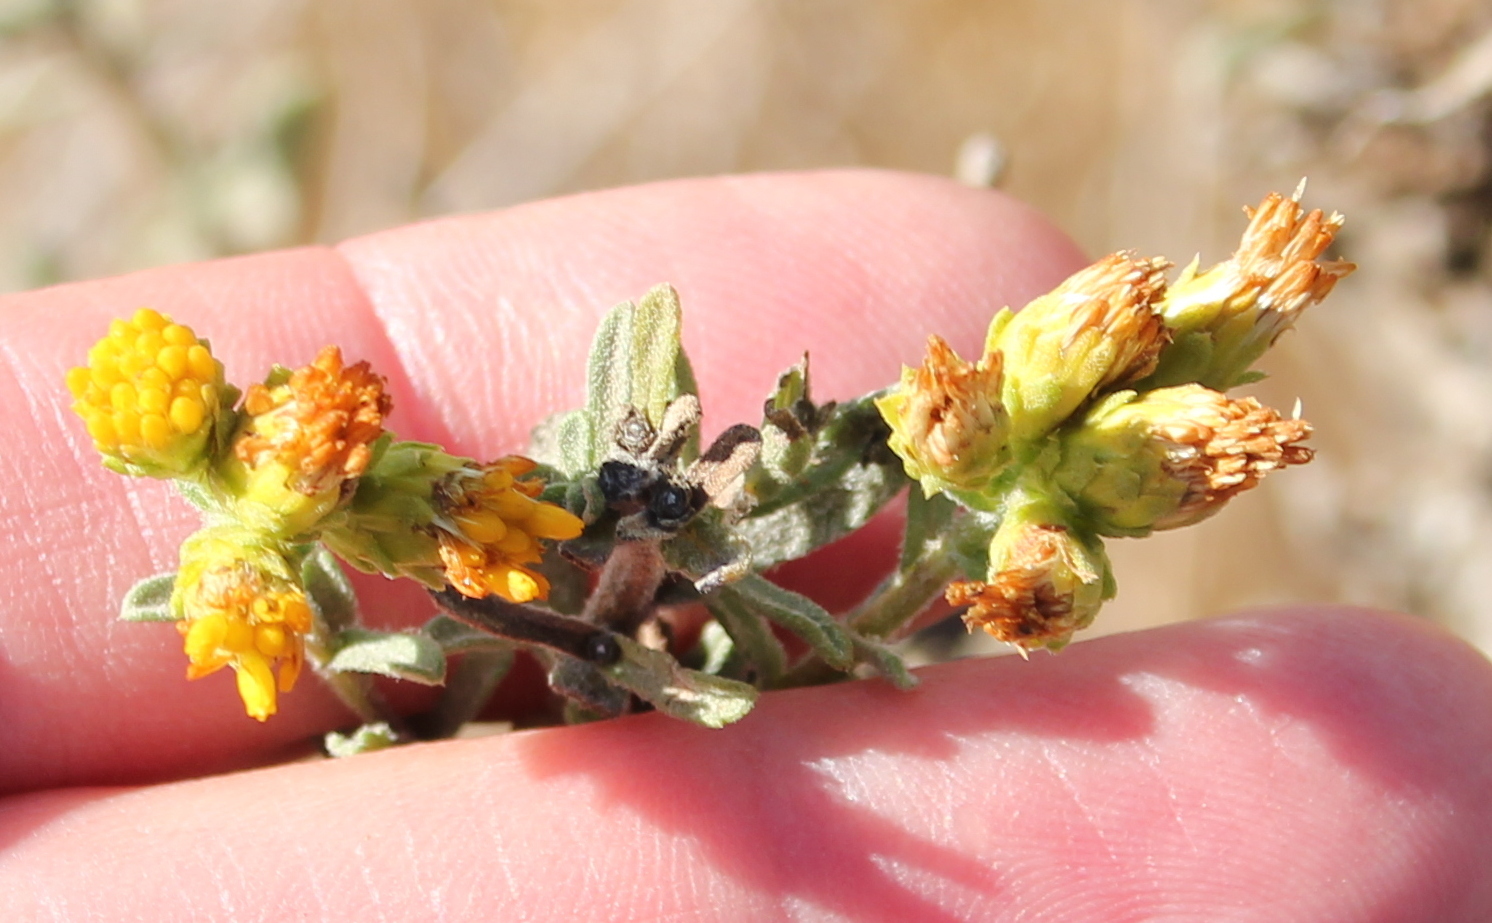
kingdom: Plantae
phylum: Tracheophyta
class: Magnoliopsida
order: Asterales
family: Asteraceae
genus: Isocoma
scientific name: Isocoma menziesii
